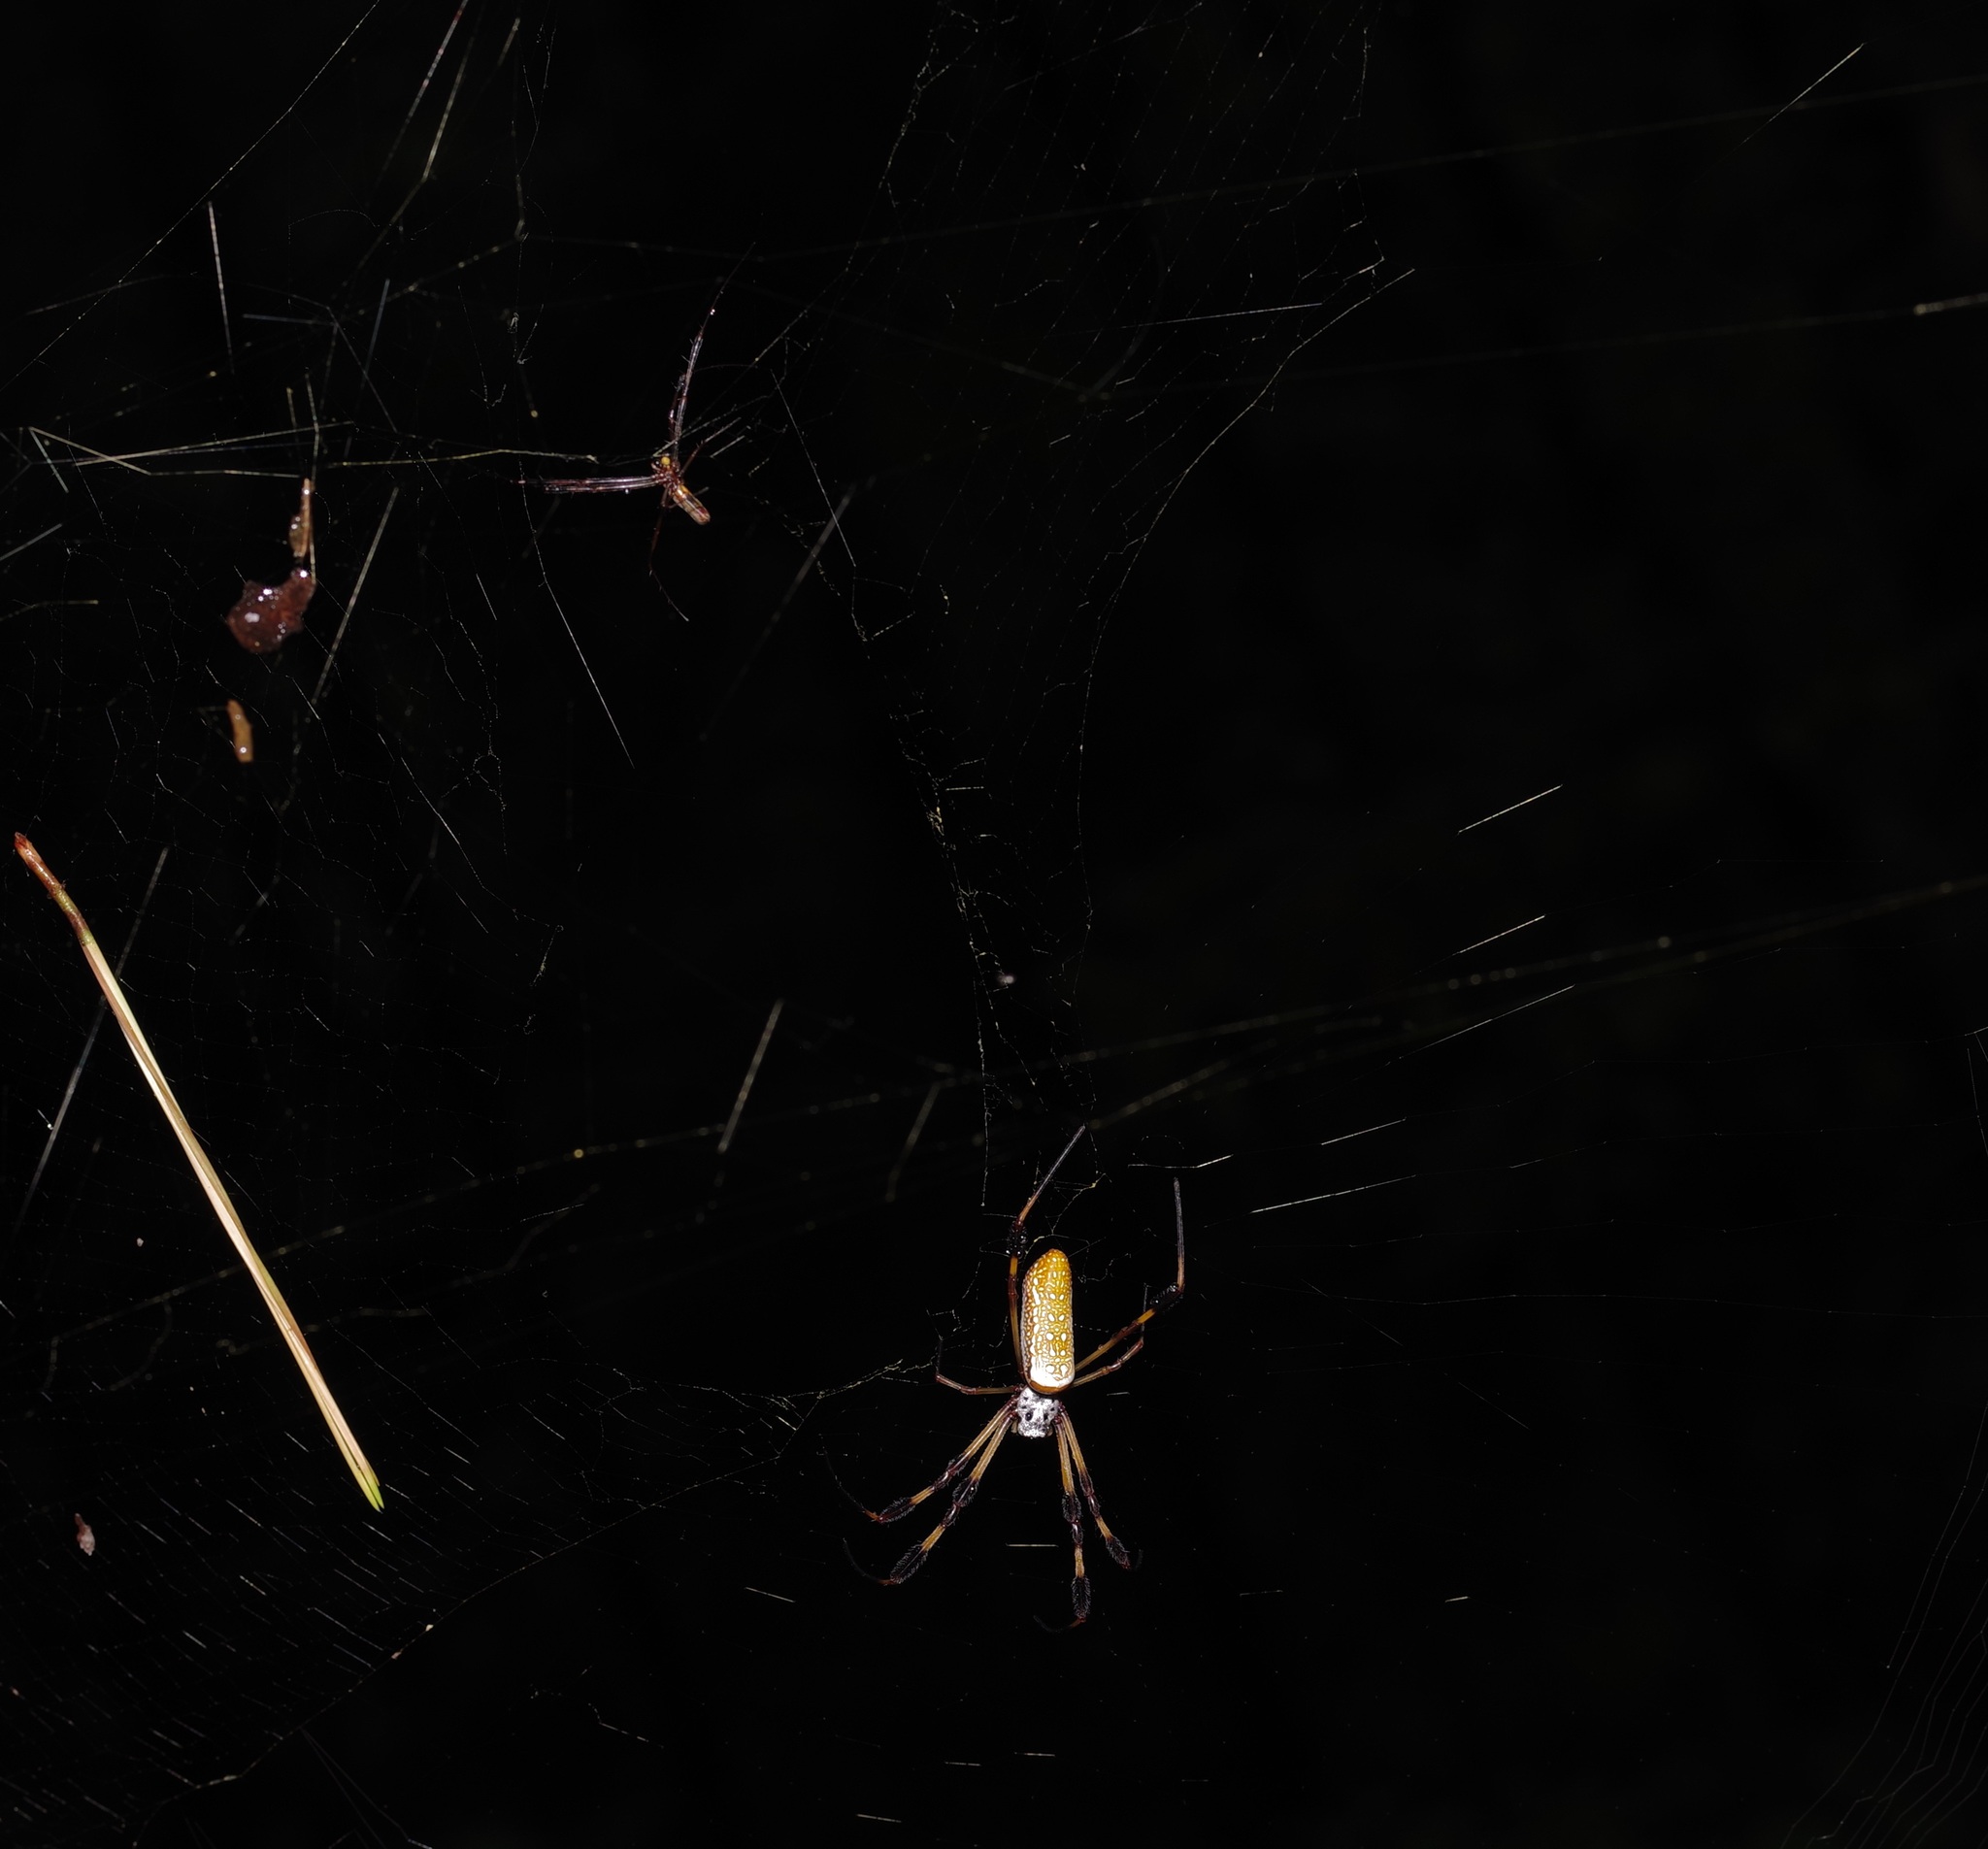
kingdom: Animalia
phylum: Arthropoda
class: Arachnida
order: Araneae
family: Araneidae
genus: Trichonephila
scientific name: Trichonephila clavipes
